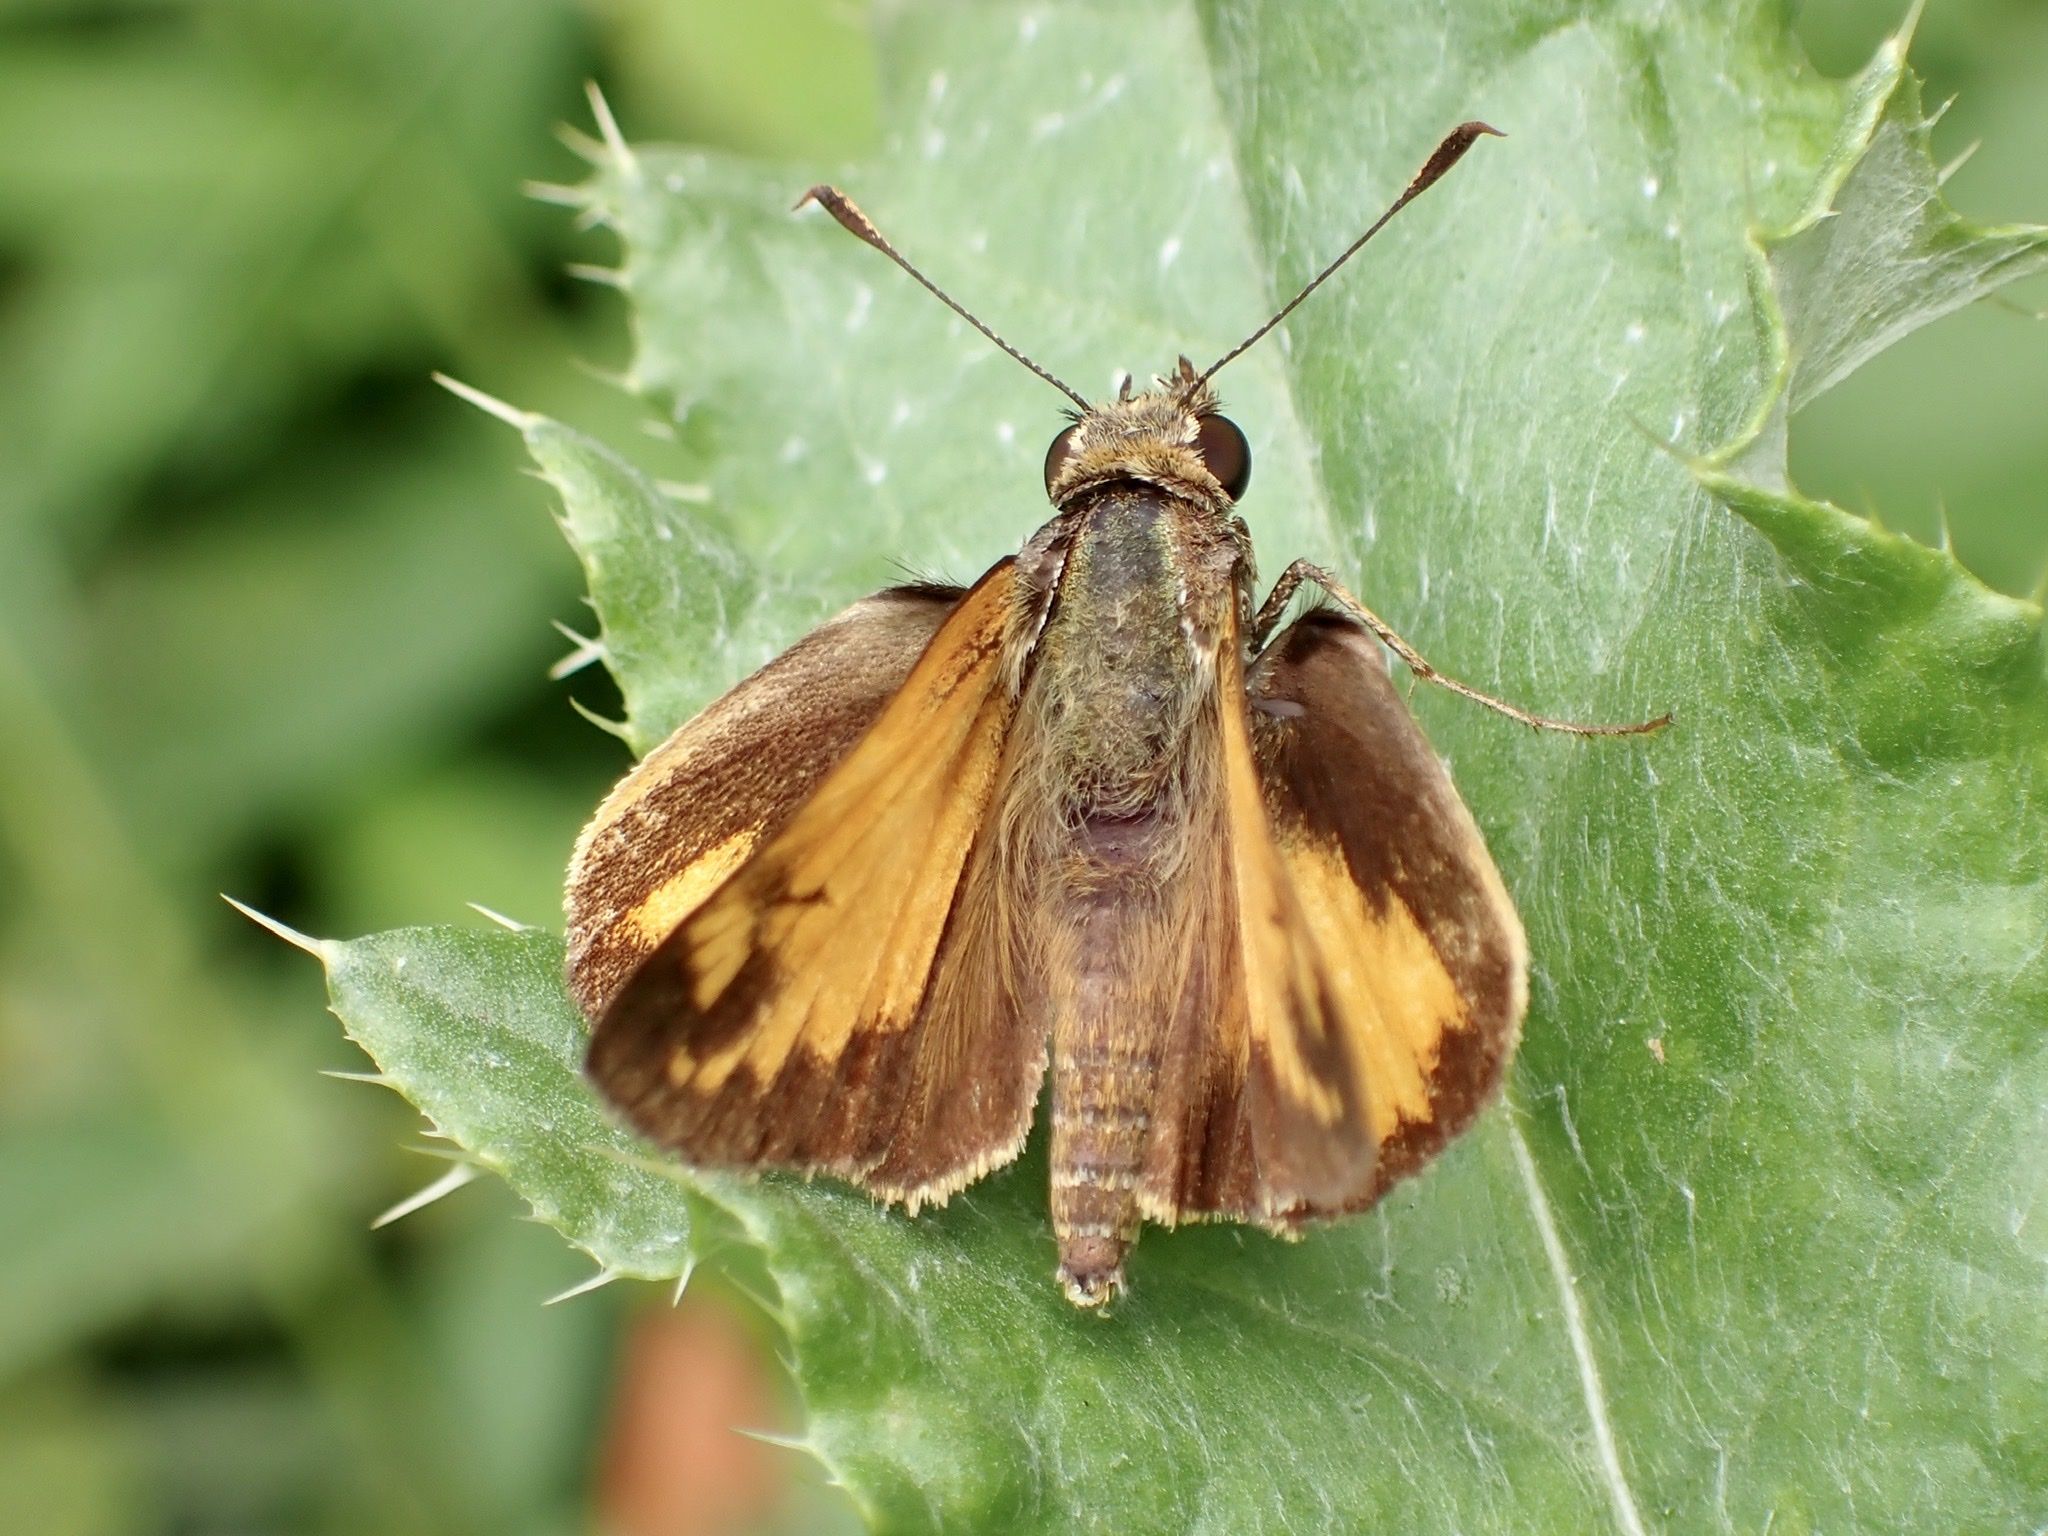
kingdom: Animalia
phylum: Arthropoda
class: Insecta
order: Lepidoptera
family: Hesperiidae
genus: Lon
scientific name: Lon zabulon
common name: Zabulon skipper
